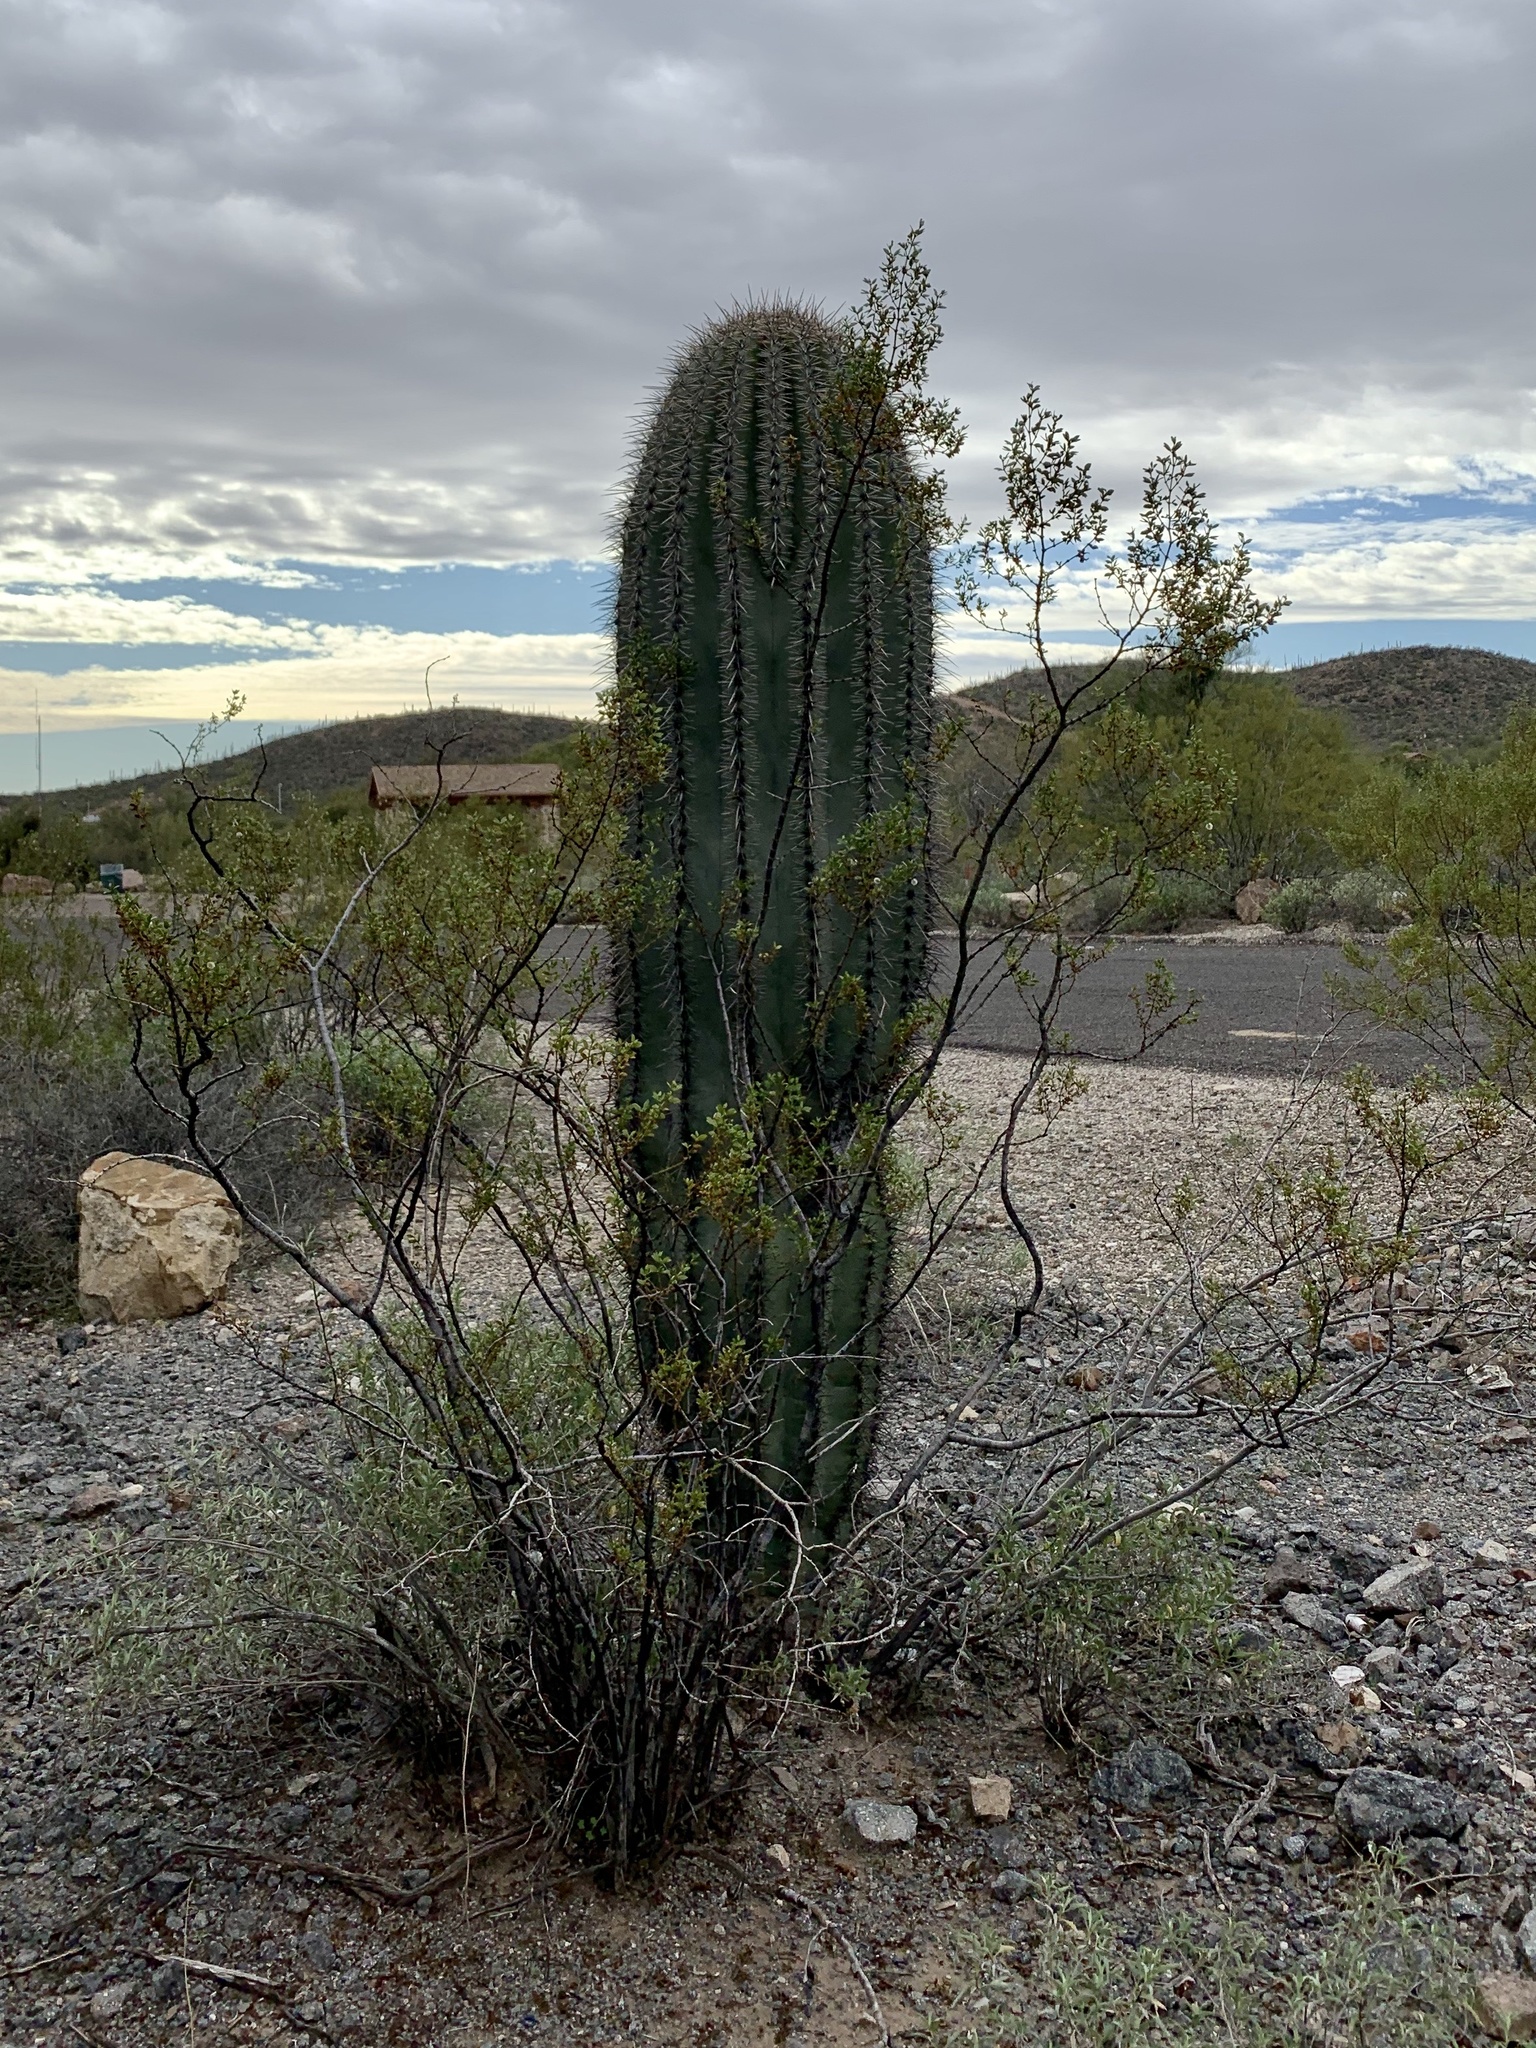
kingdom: Plantae
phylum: Tracheophyta
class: Magnoliopsida
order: Caryophyllales
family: Cactaceae
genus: Carnegiea
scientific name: Carnegiea gigantea
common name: Saguaro
